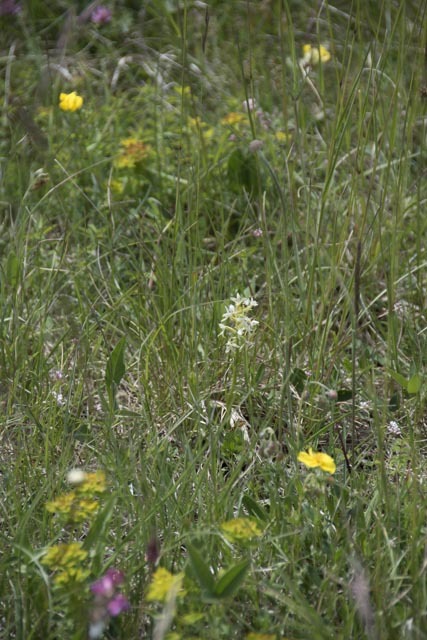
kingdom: Plantae
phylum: Tracheophyta
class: Liliopsida
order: Asparagales
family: Orchidaceae
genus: Platanthera
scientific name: Platanthera bifolia
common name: Lesser butterfly-orchid
